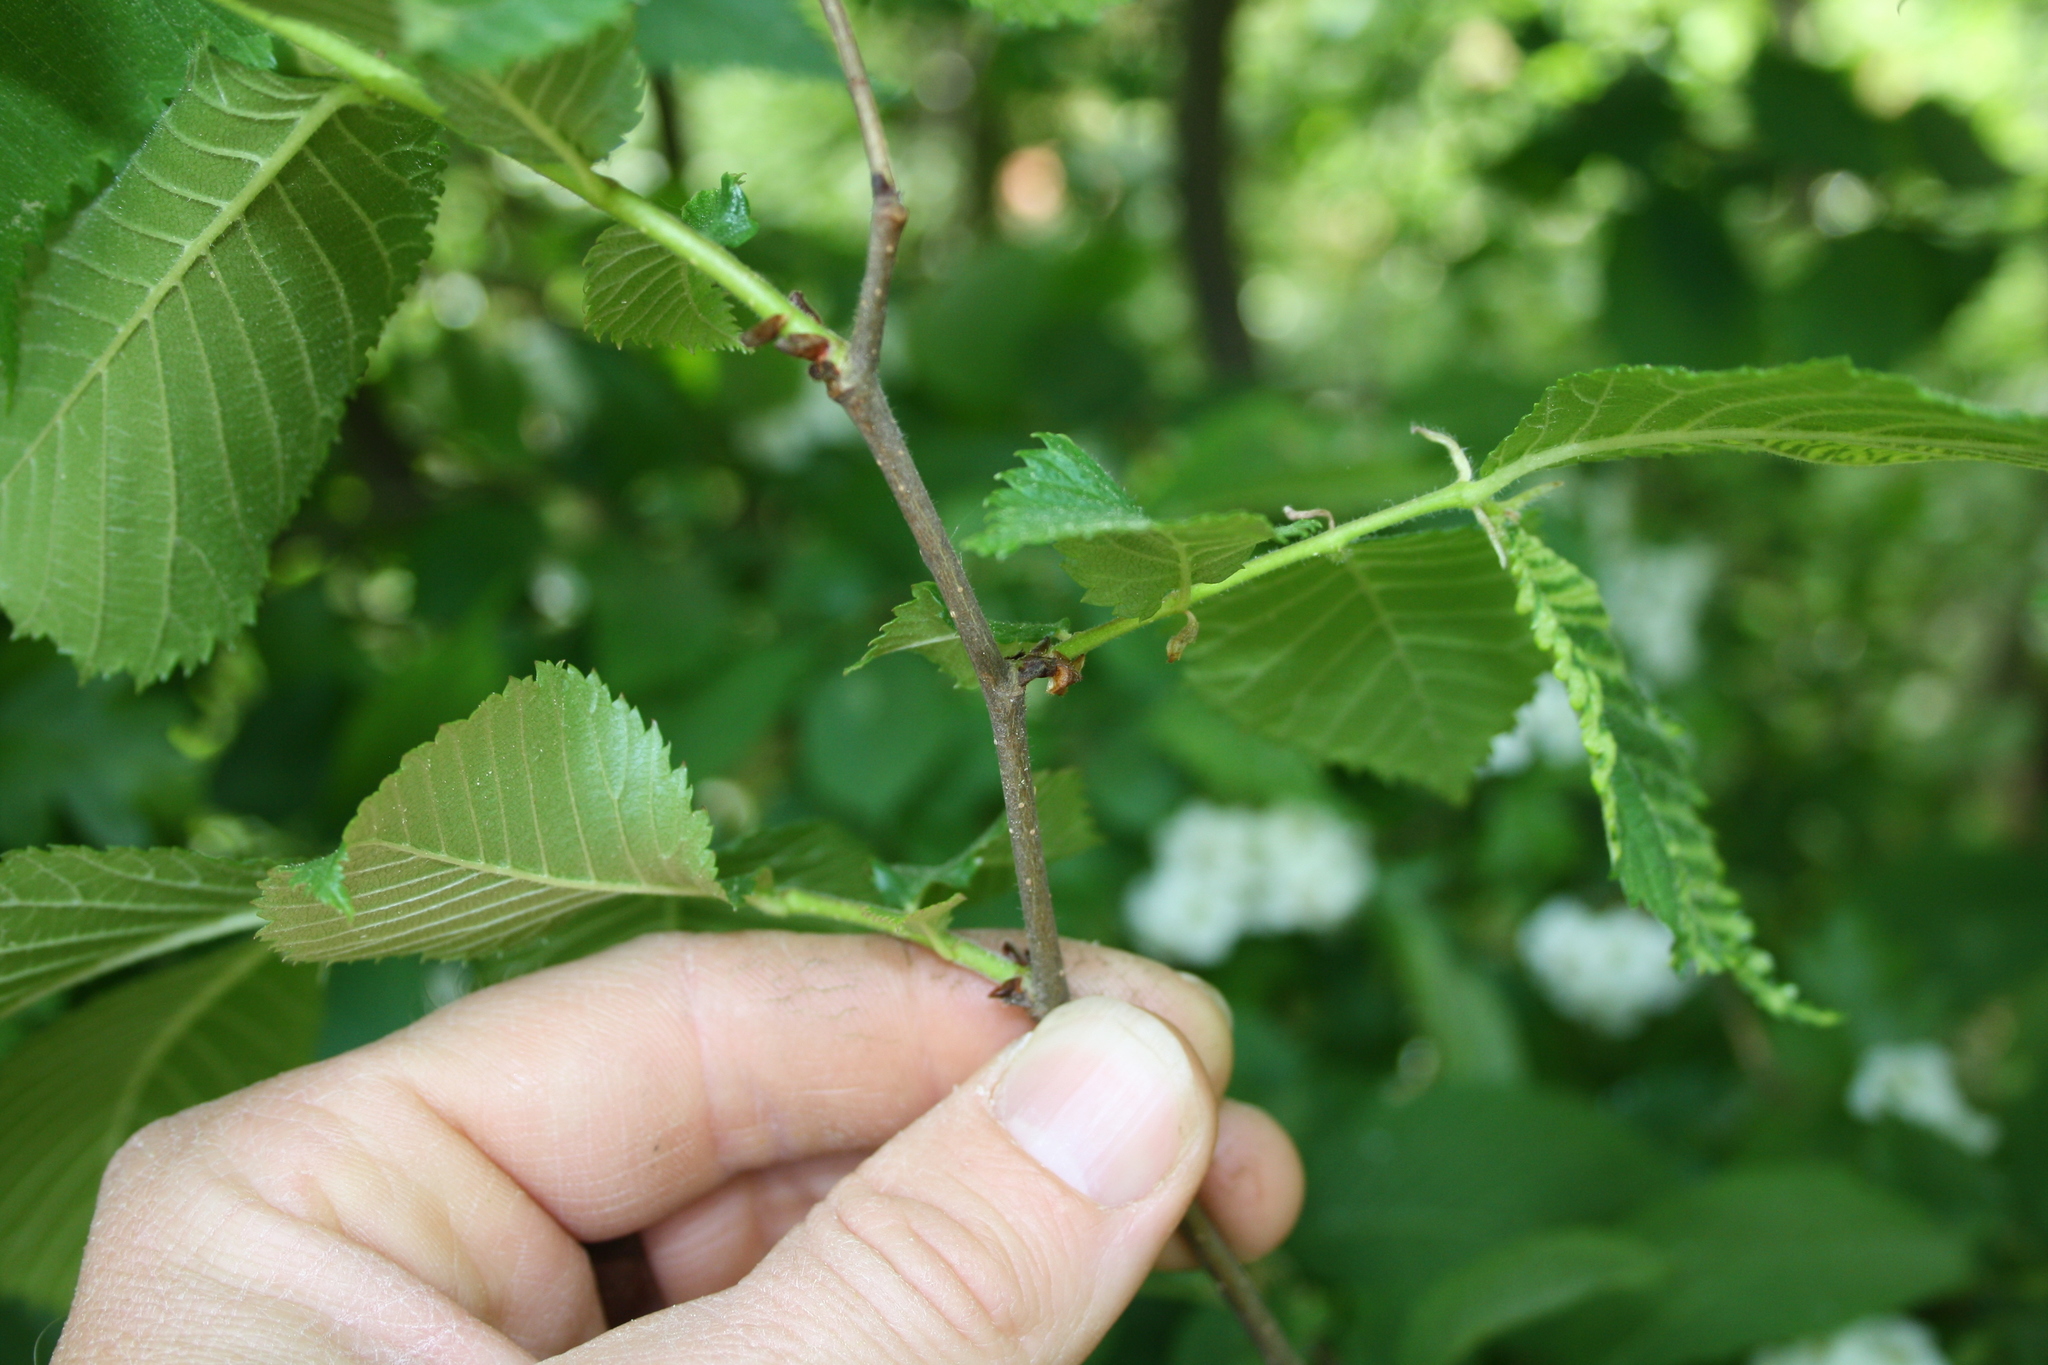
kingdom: Plantae
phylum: Tracheophyta
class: Magnoliopsida
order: Rosales
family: Ulmaceae
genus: Ulmus
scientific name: Ulmus glabra
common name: Wych elm
